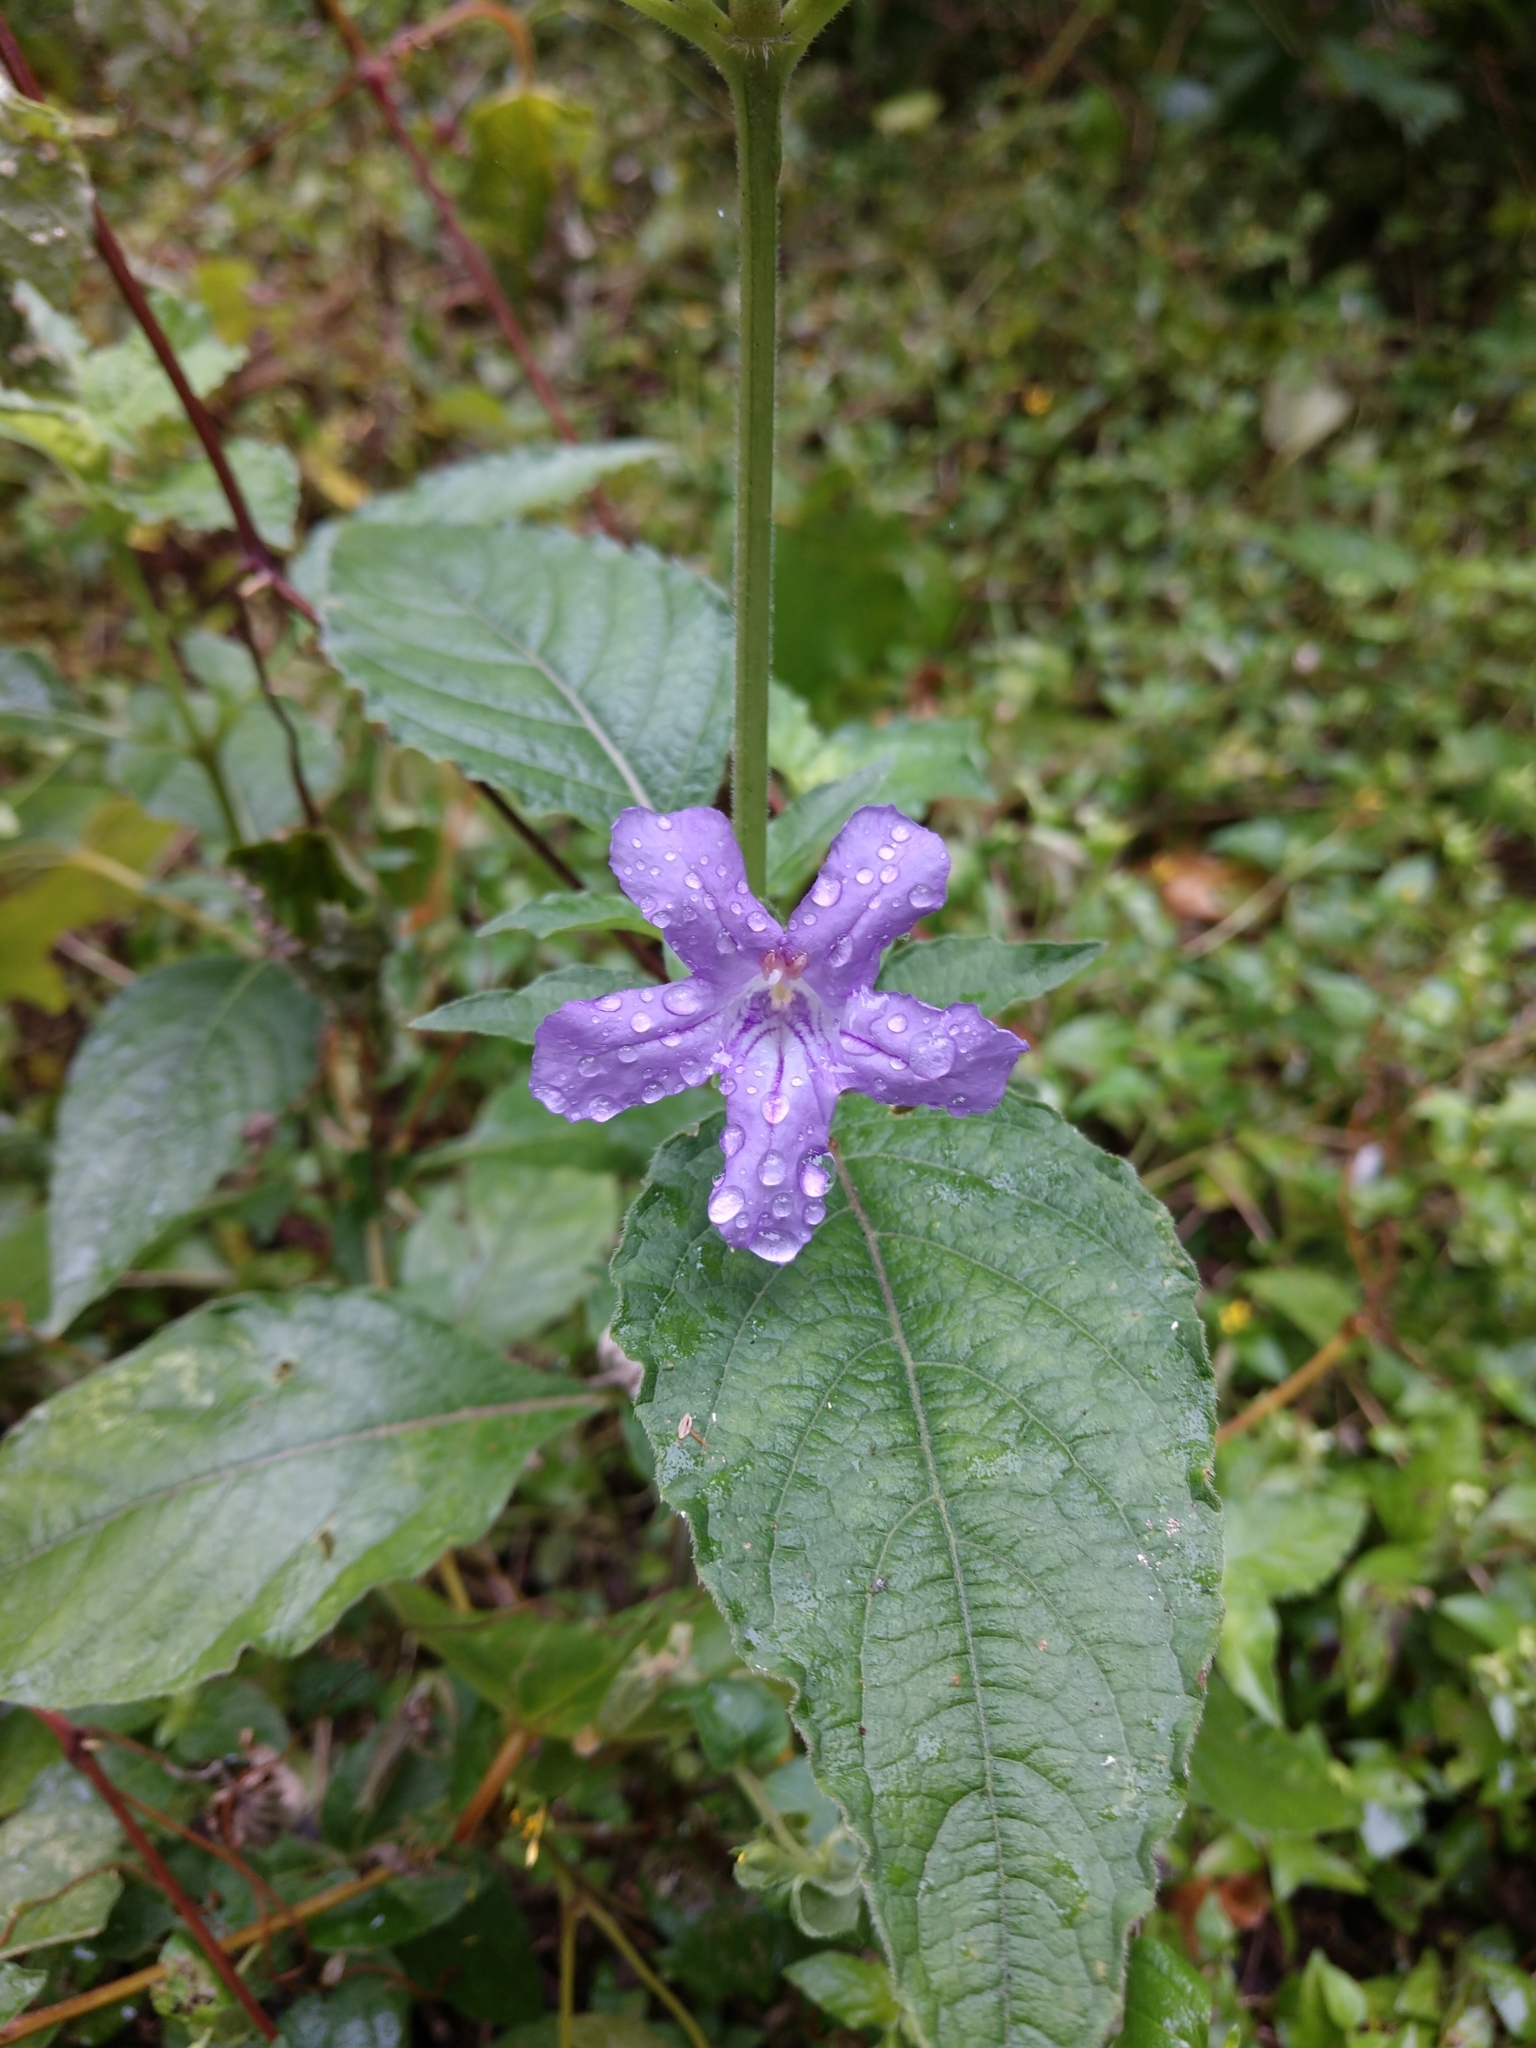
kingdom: Plantae
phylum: Tracheophyta
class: Magnoliopsida
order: Lamiales
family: Acanthaceae
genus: Ruellia
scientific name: Ruellia drummondiana
